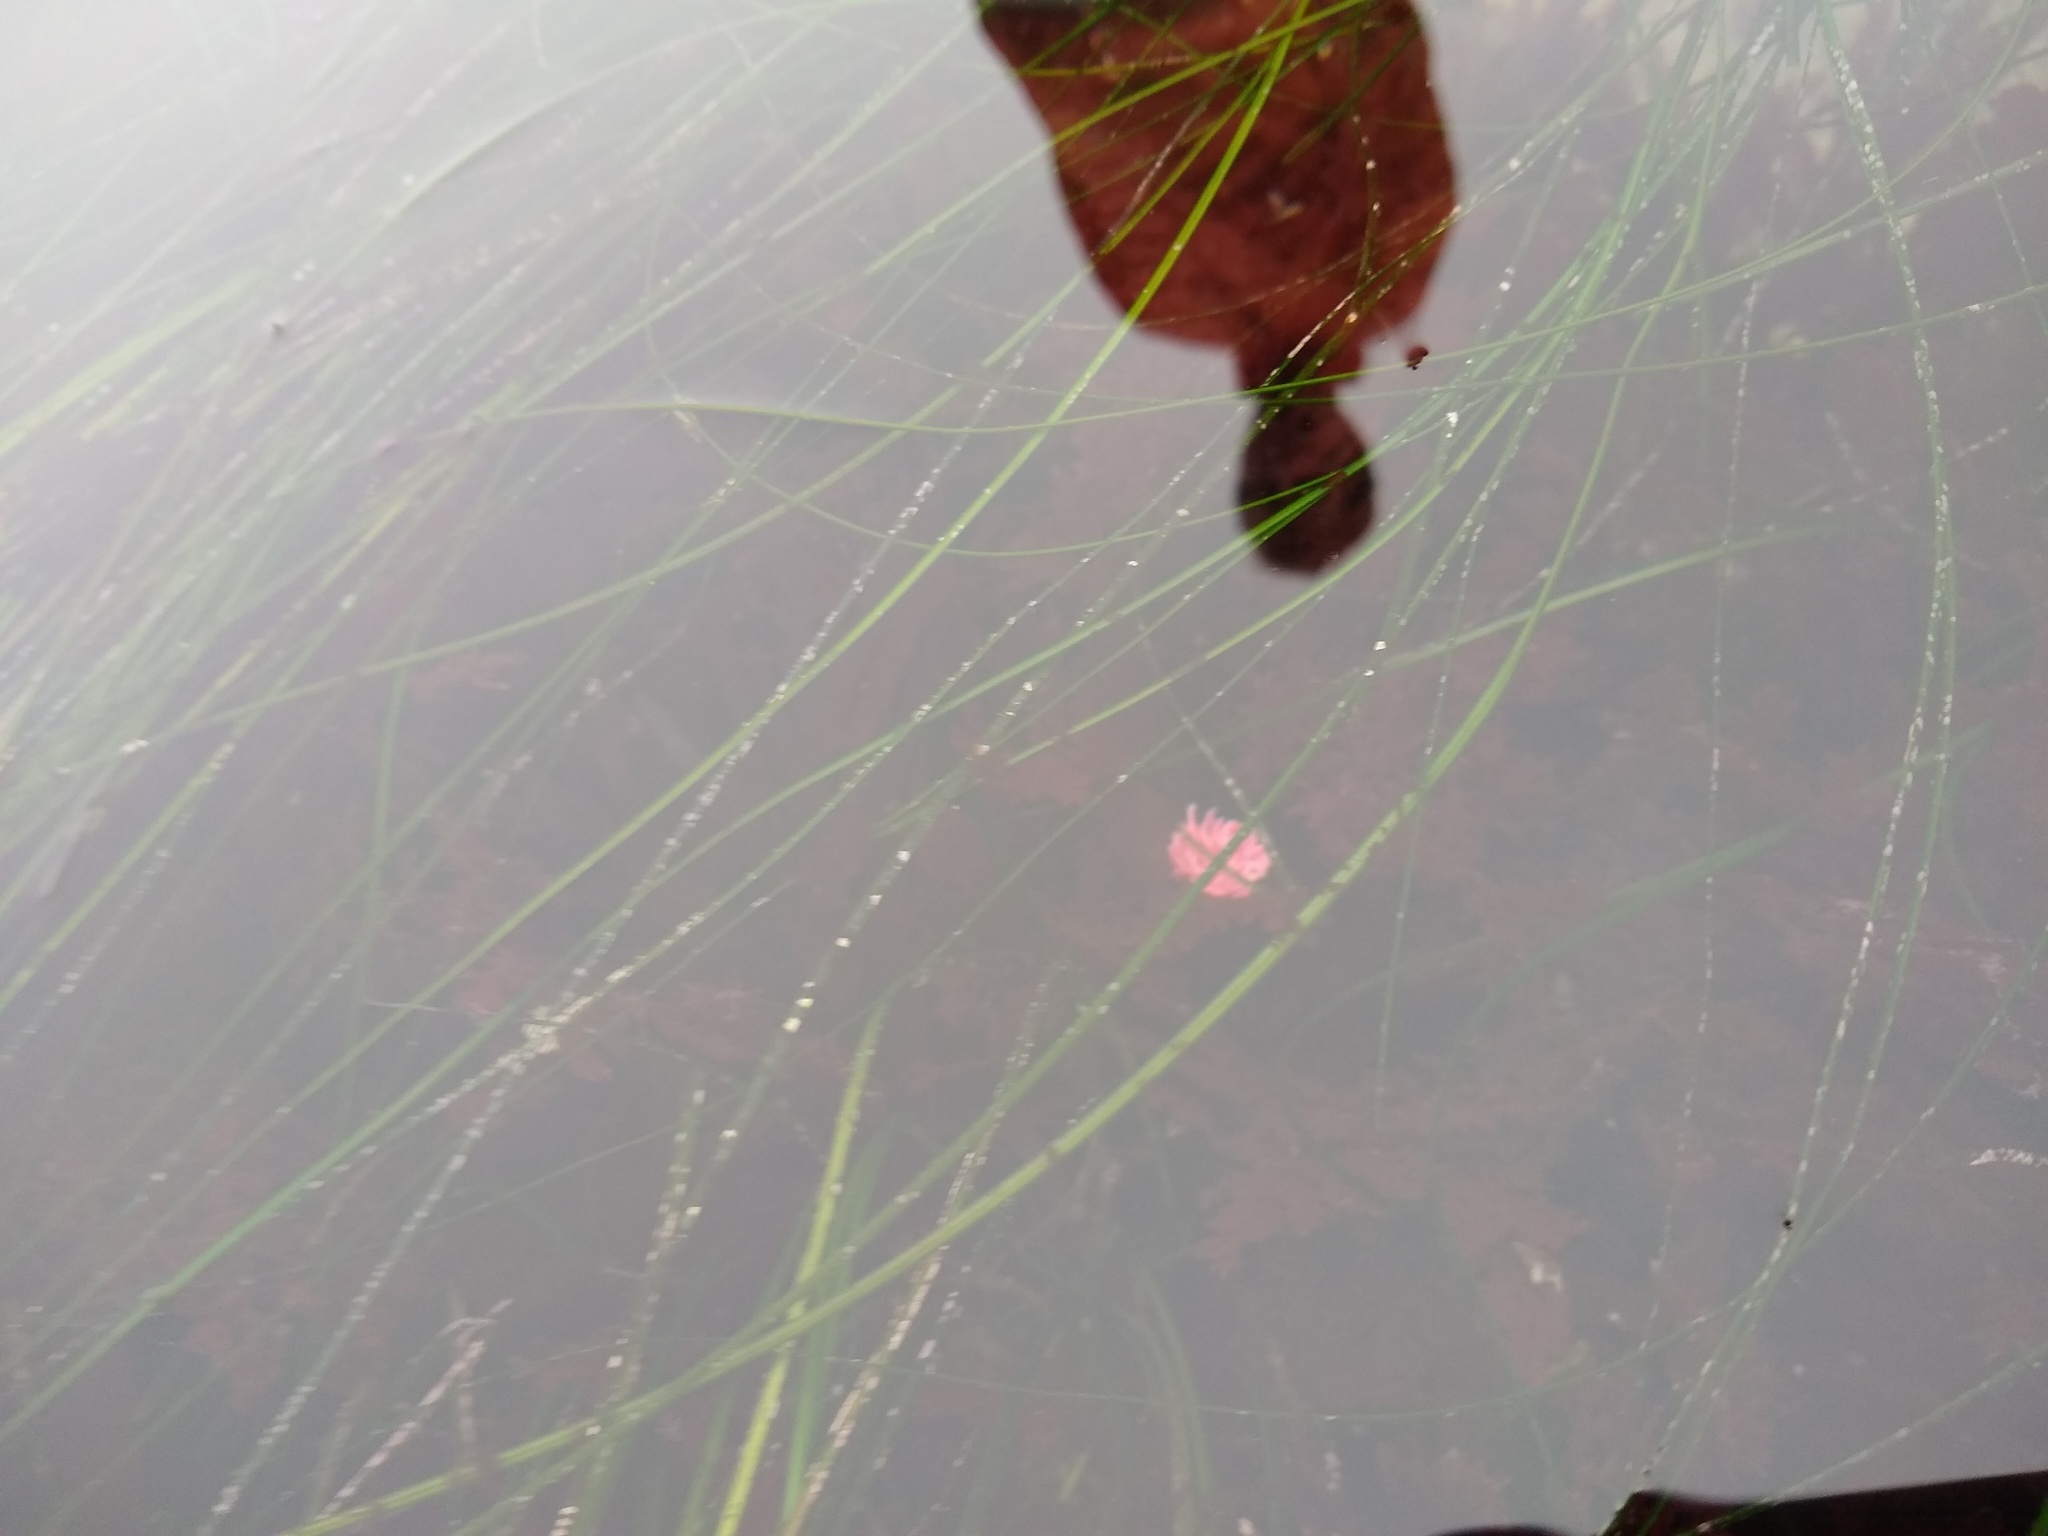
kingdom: Animalia
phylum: Mollusca
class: Gastropoda
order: Nudibranchia
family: Goniodorididae
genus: Okenia
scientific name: Okenia
